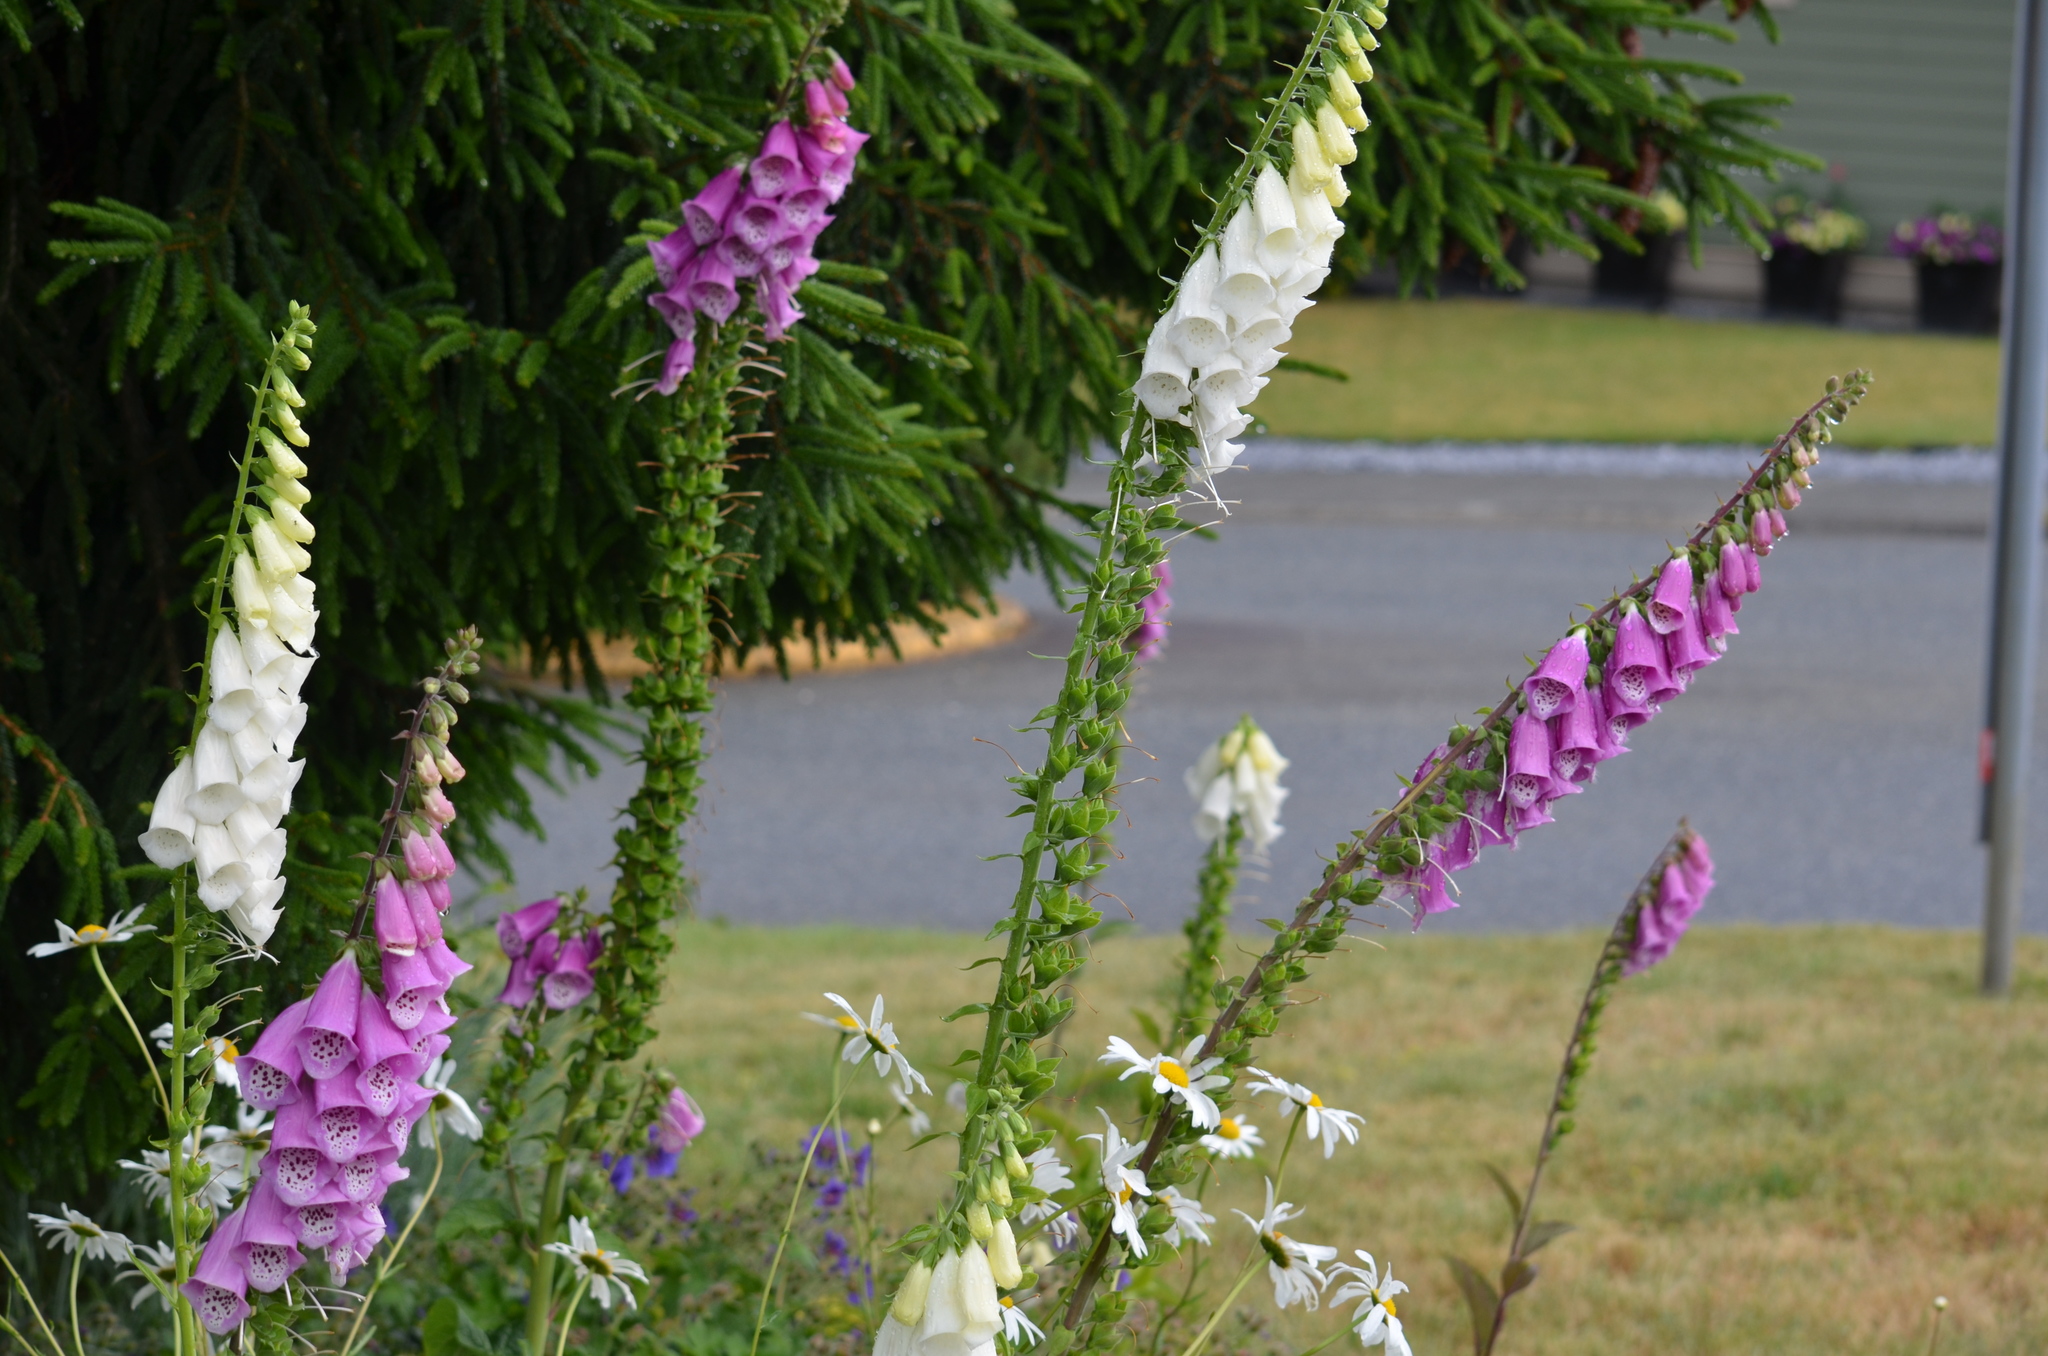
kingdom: Plantae
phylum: Tracheophyta
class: Magnoliopsida
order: Lamiales
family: Plantaginaceae
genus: Digitalis
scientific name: Digitalis purpurea
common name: Foxglove
